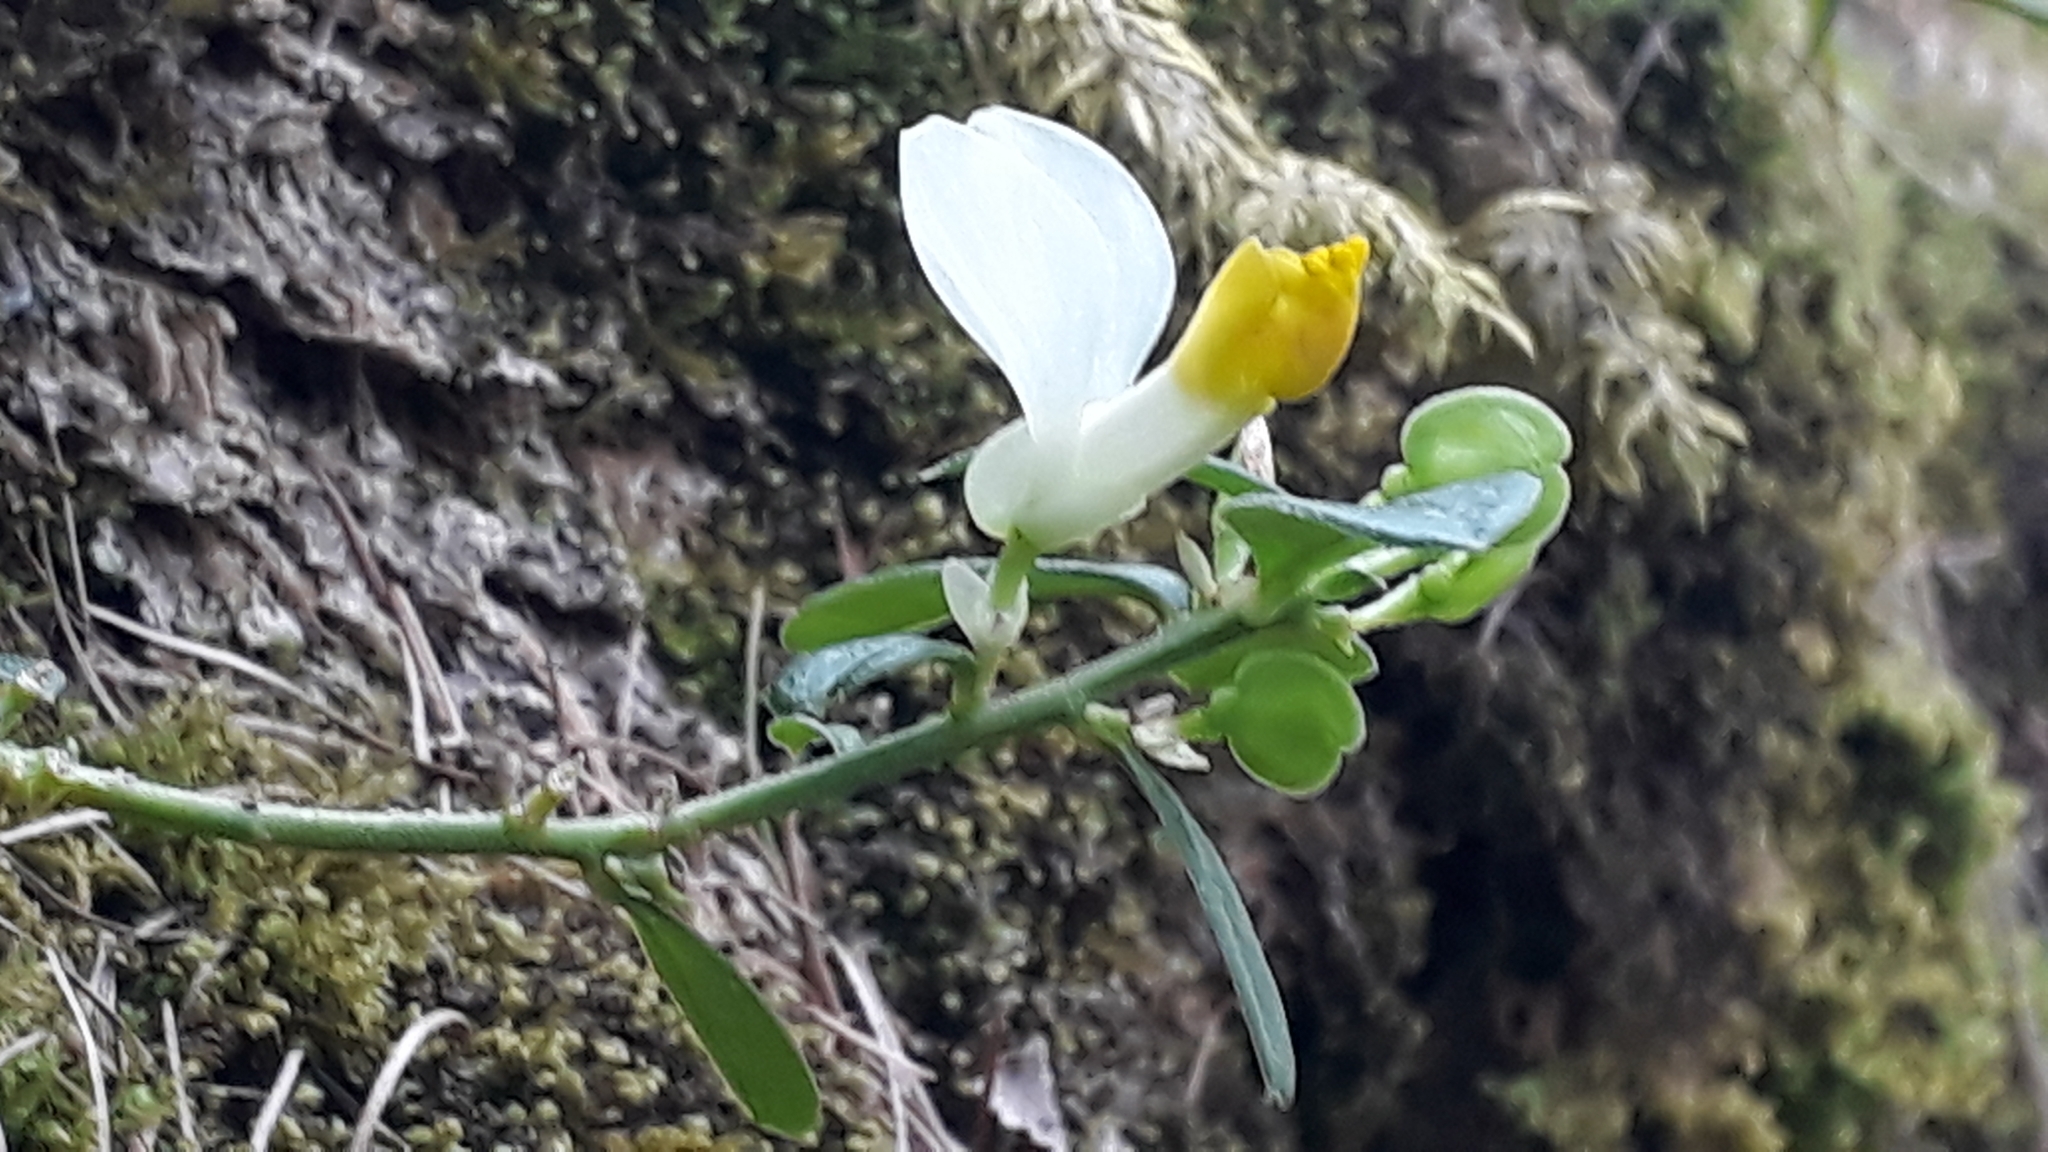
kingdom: Plantae
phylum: Tracheophyta
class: Magnoliopsida
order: Fabales
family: Polygalaceae
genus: Polygaloides
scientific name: Polygaloides chamaebuxus
